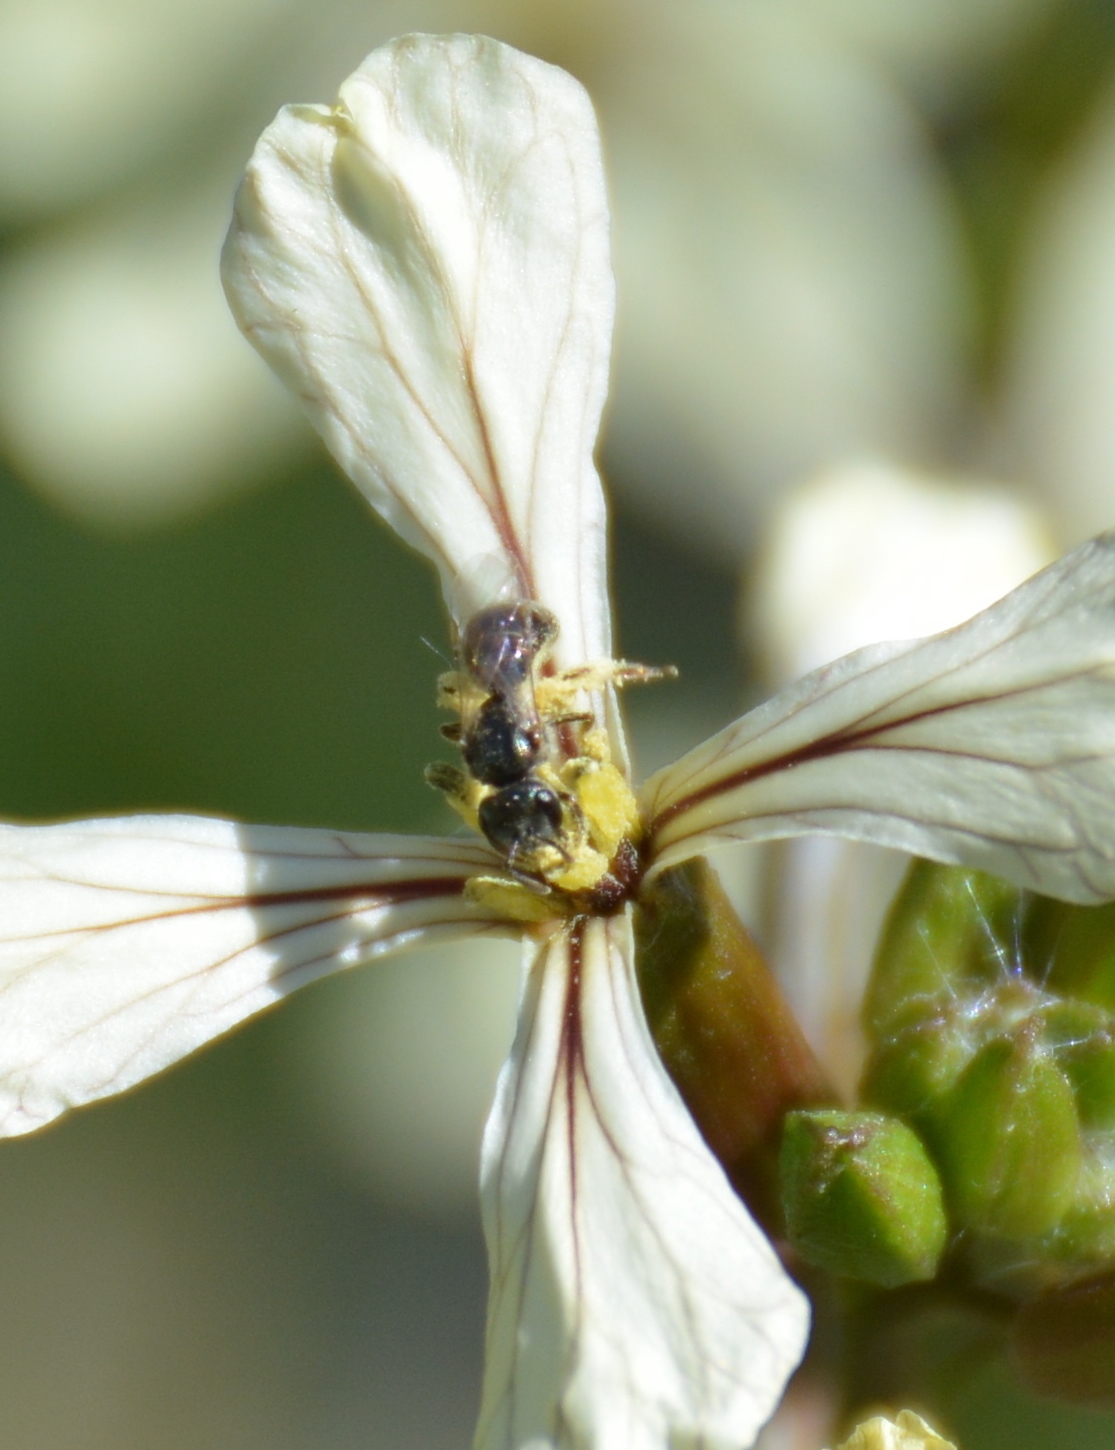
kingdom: Animalia
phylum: Arthropoda
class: Insecta
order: Hymenoptera
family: Halictidae
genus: Dialictus
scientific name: Dialictus
